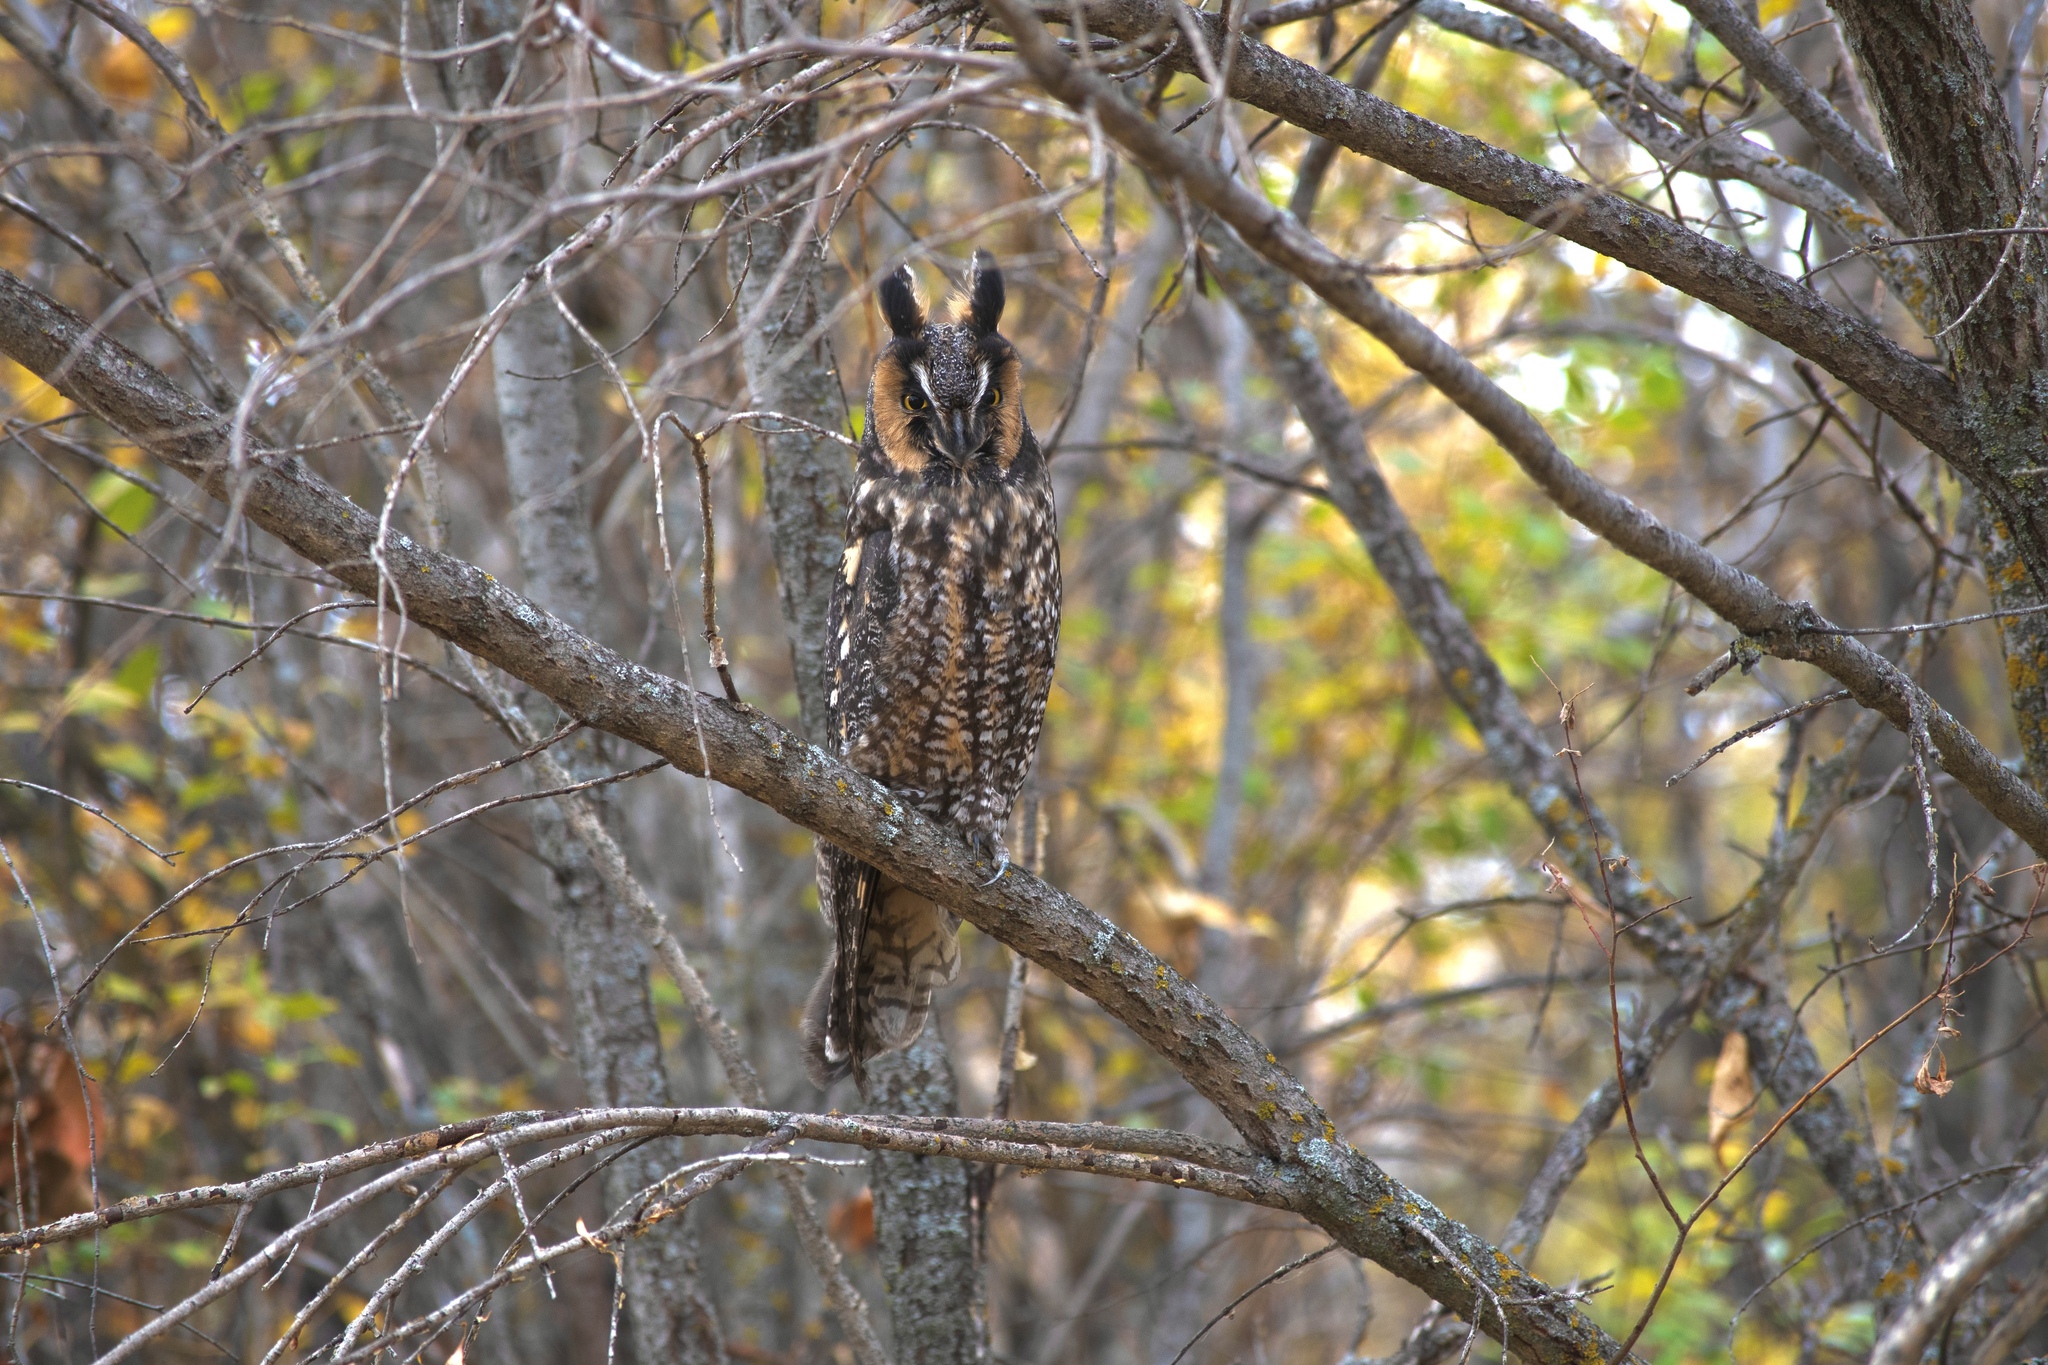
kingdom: Animalia
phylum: Chordata
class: Aves
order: Strigiformes
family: Strigidae
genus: Asio
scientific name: Asio otus
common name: Long-eared owl
